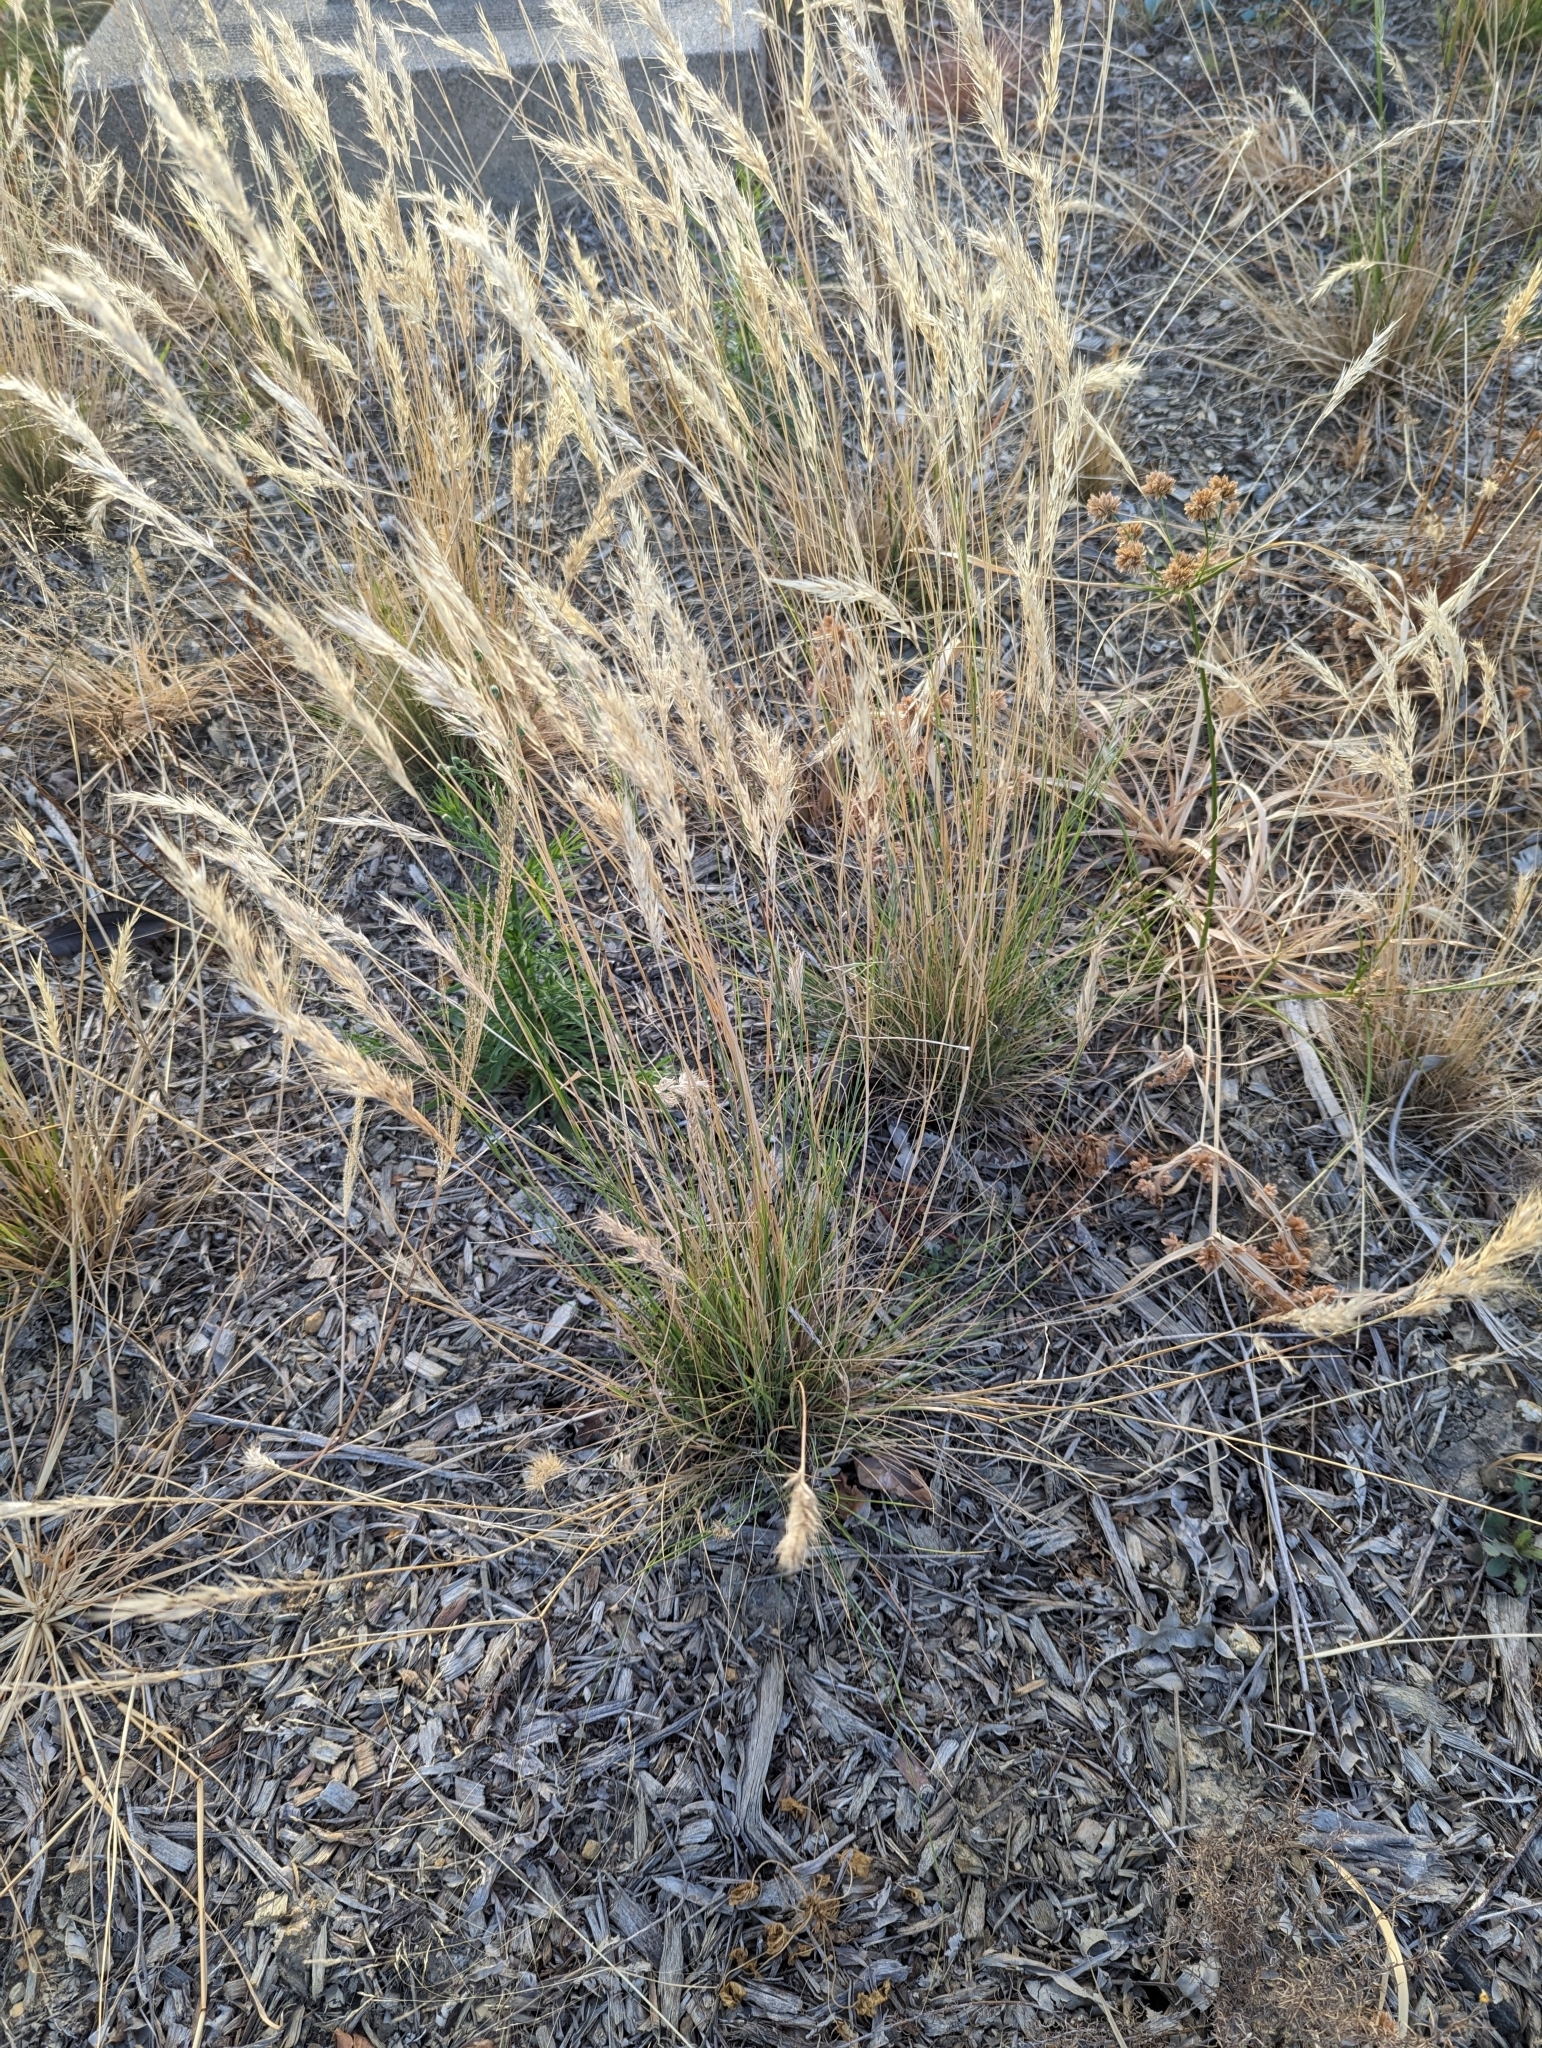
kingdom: Plantae
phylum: Tracheophyta
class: Liliopsida
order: Poales
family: Poaceae
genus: Rytidosperma
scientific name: Rytidosperma
